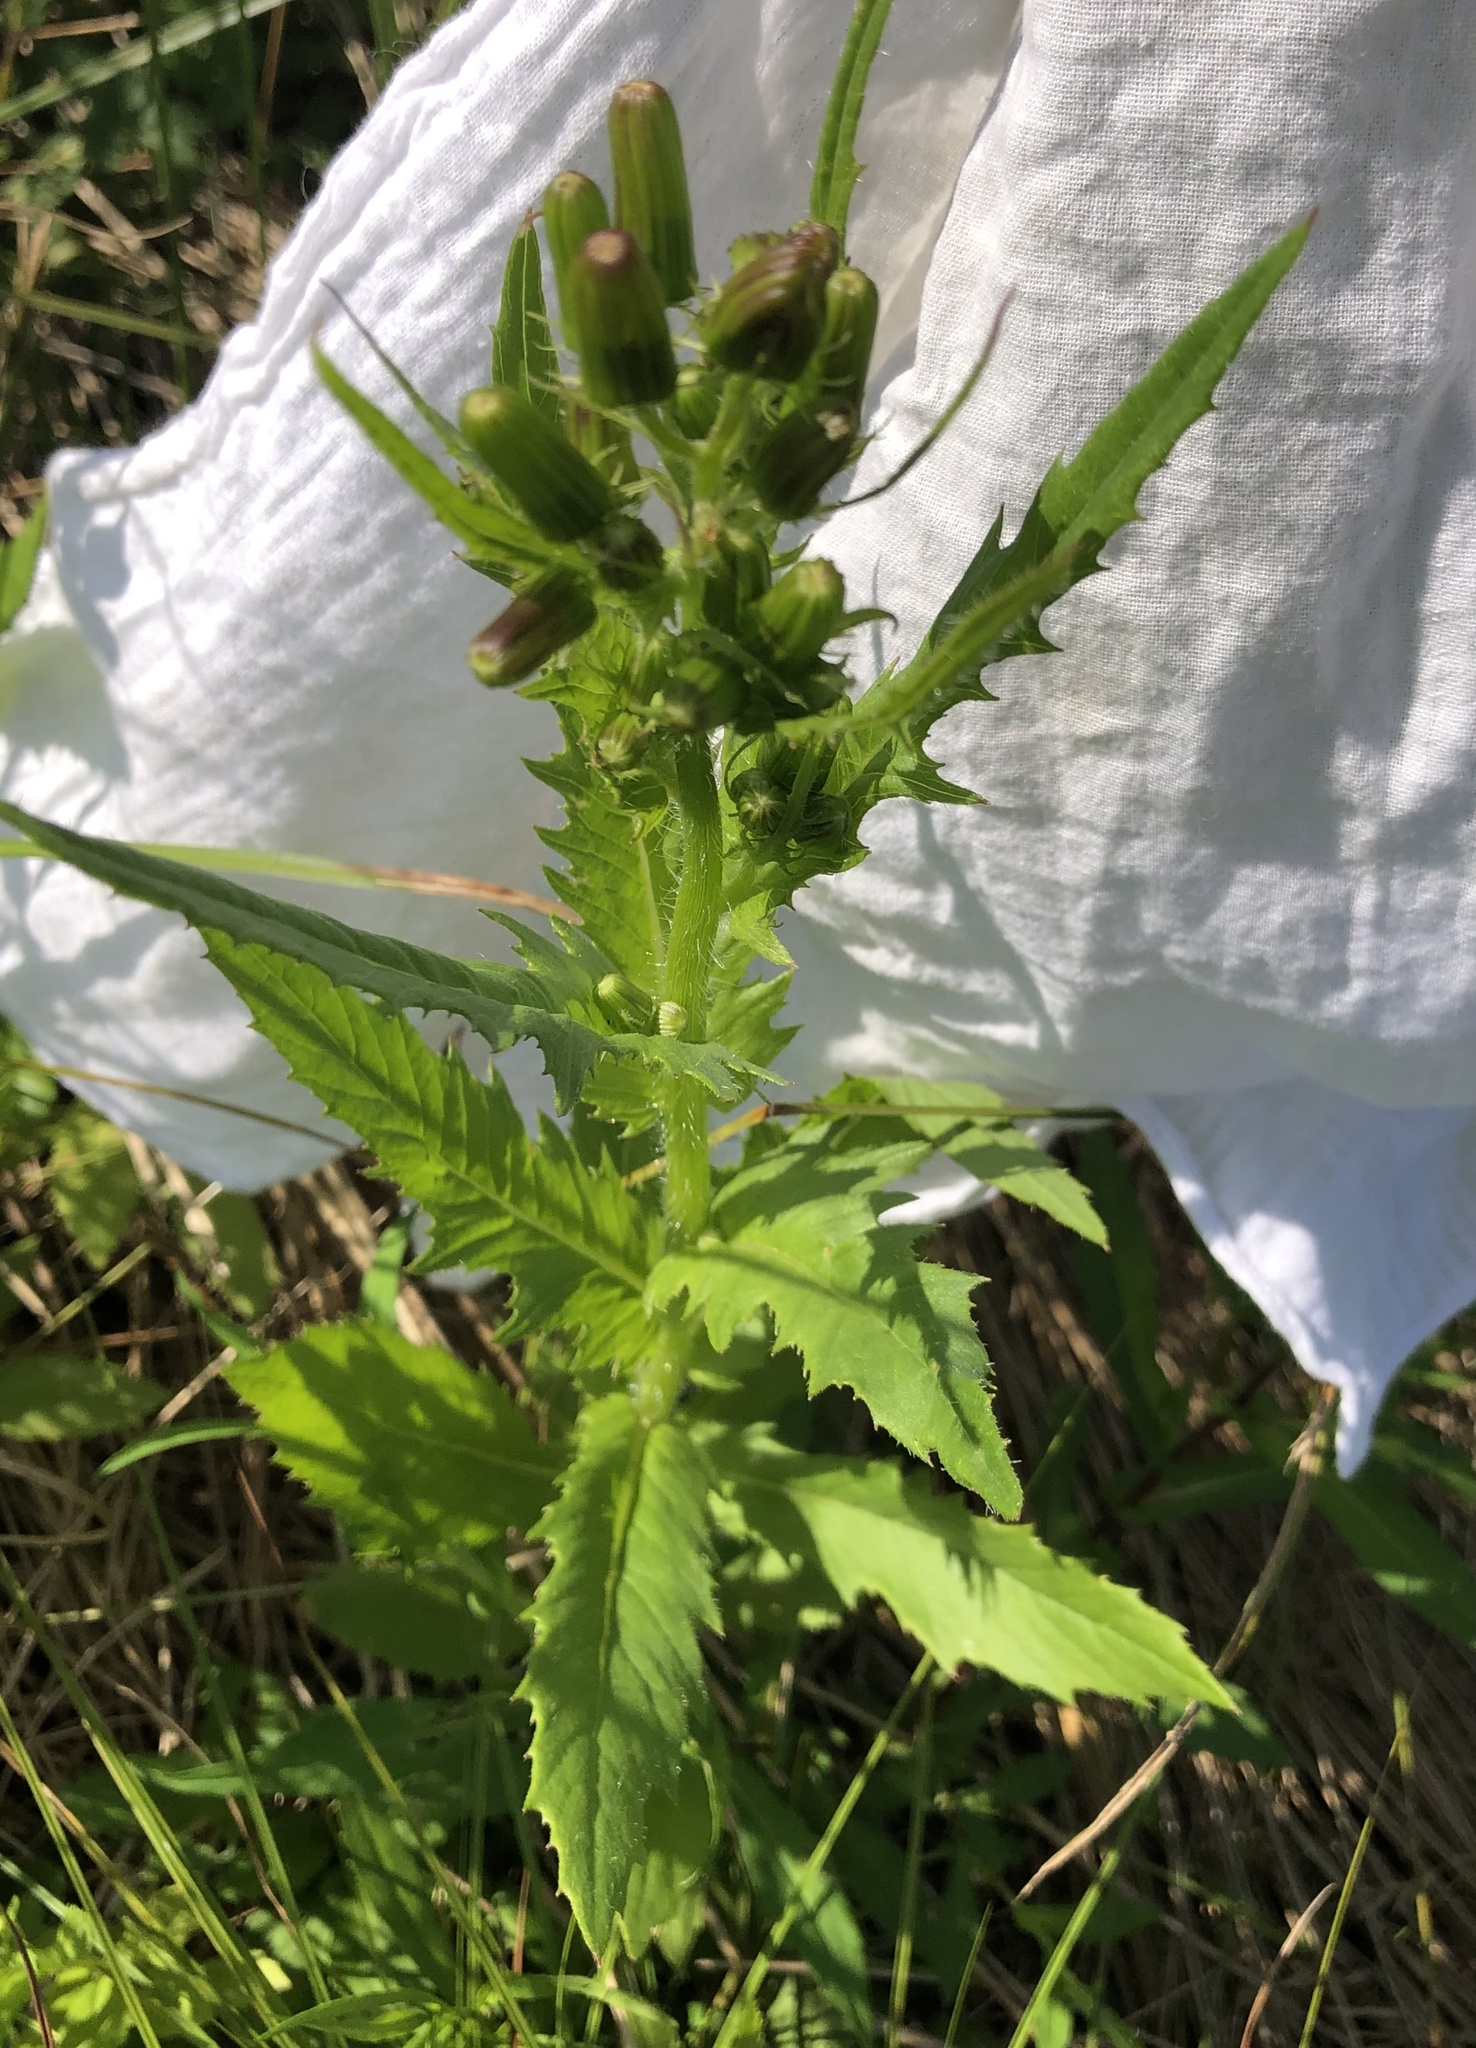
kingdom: Plantae
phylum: Tracheophyta
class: Magnoliopsida
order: Asterales
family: Asteraceae
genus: Erechtites
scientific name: Erechtites hieraciifolius
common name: American burnweed
